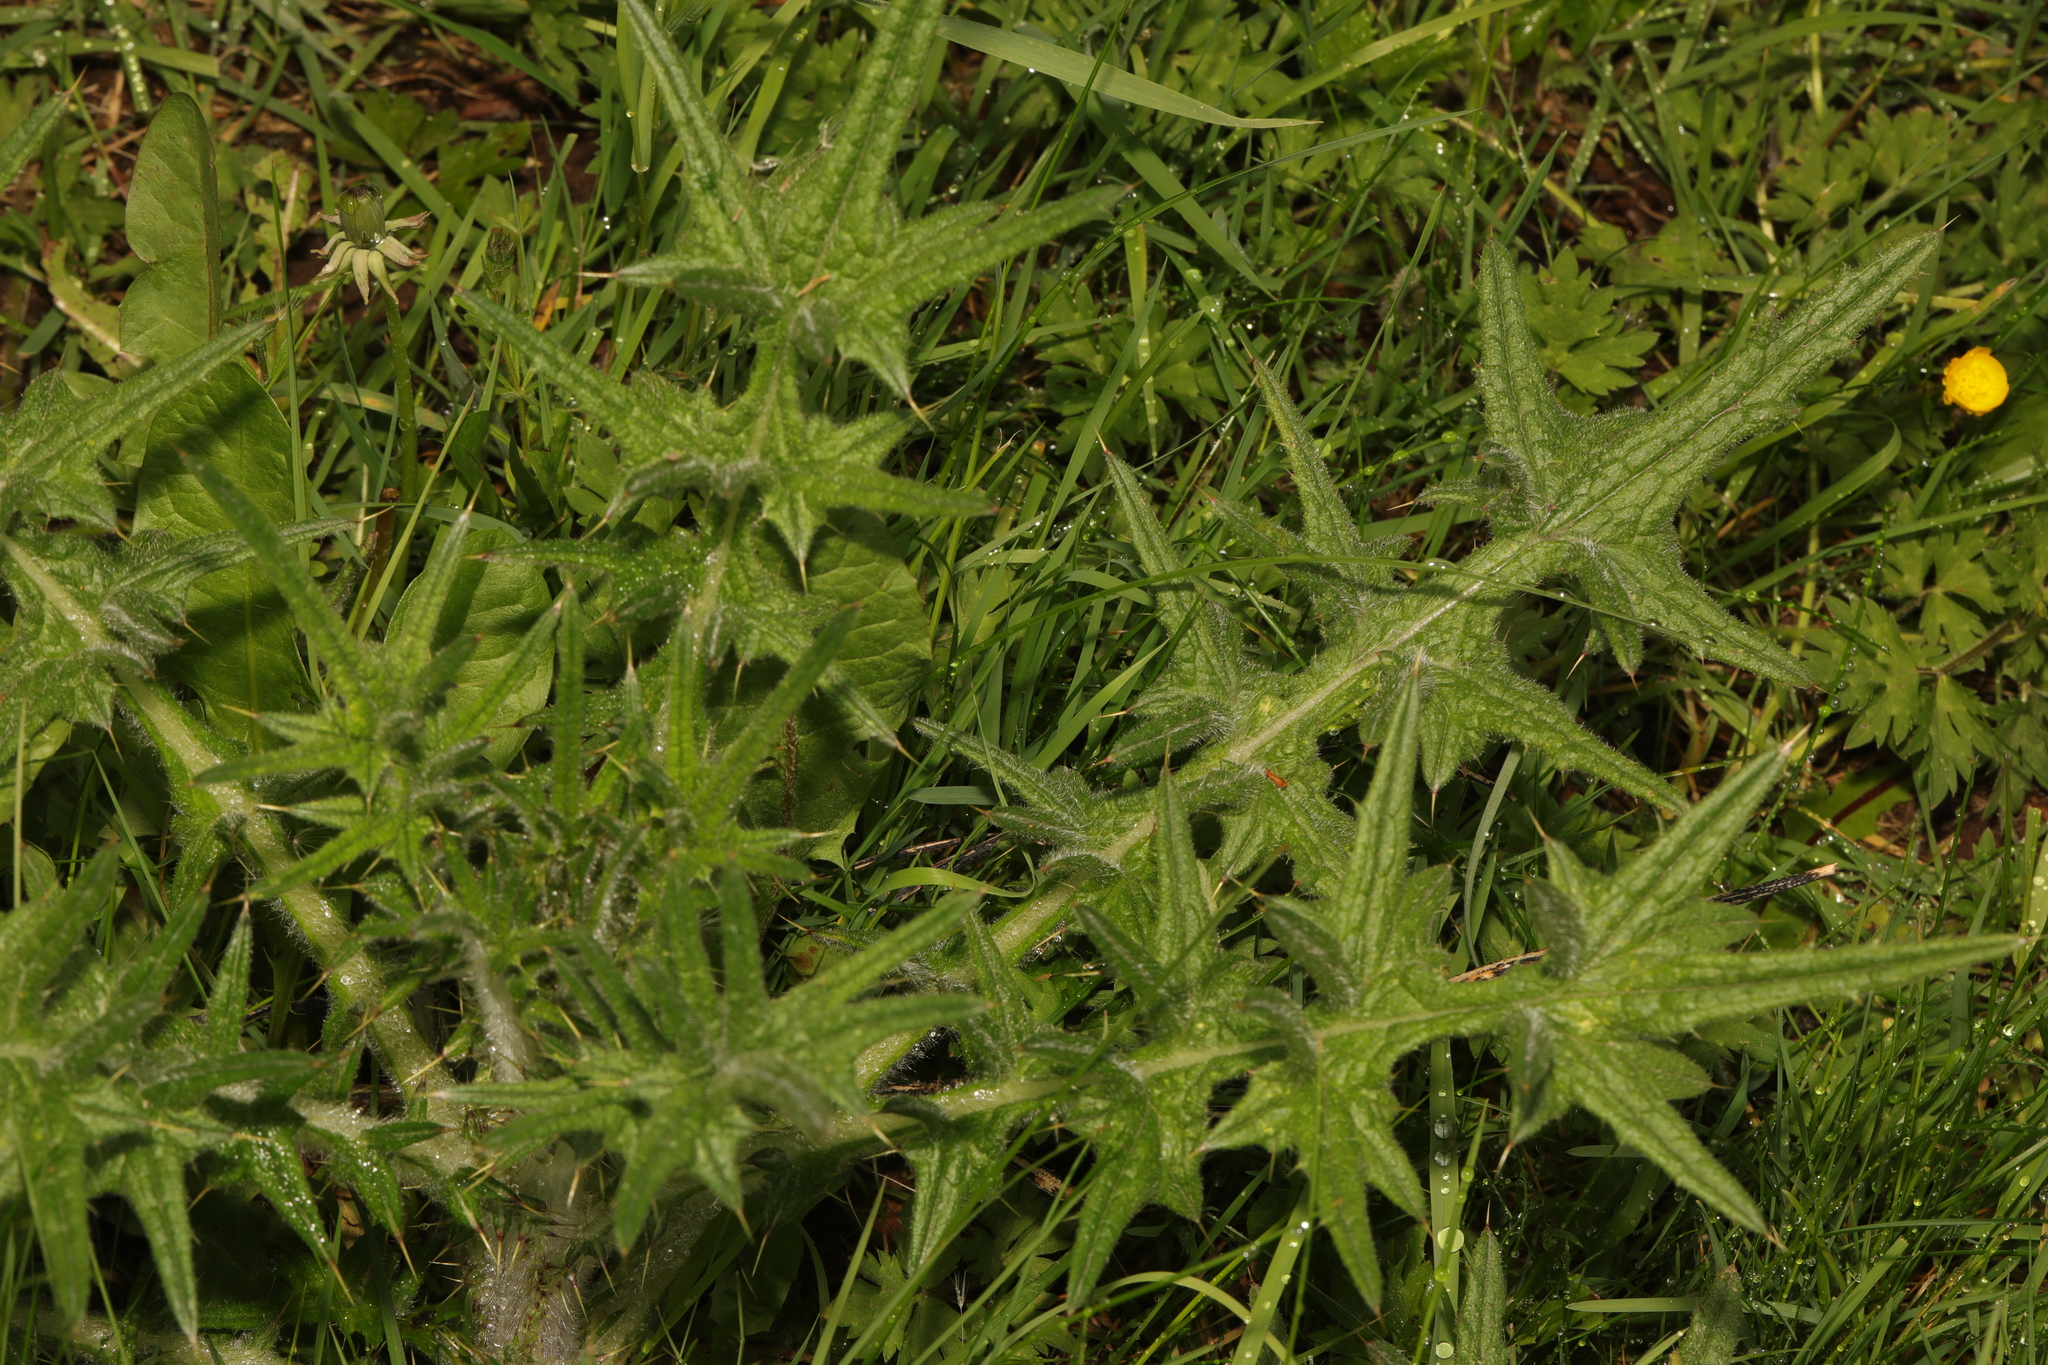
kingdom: Plantae
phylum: Tracheophyta
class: Magnoliopsida
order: Asterales
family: Asteraceae
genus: Cirsium
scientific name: Cirsium vulgare
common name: Bull thistle
